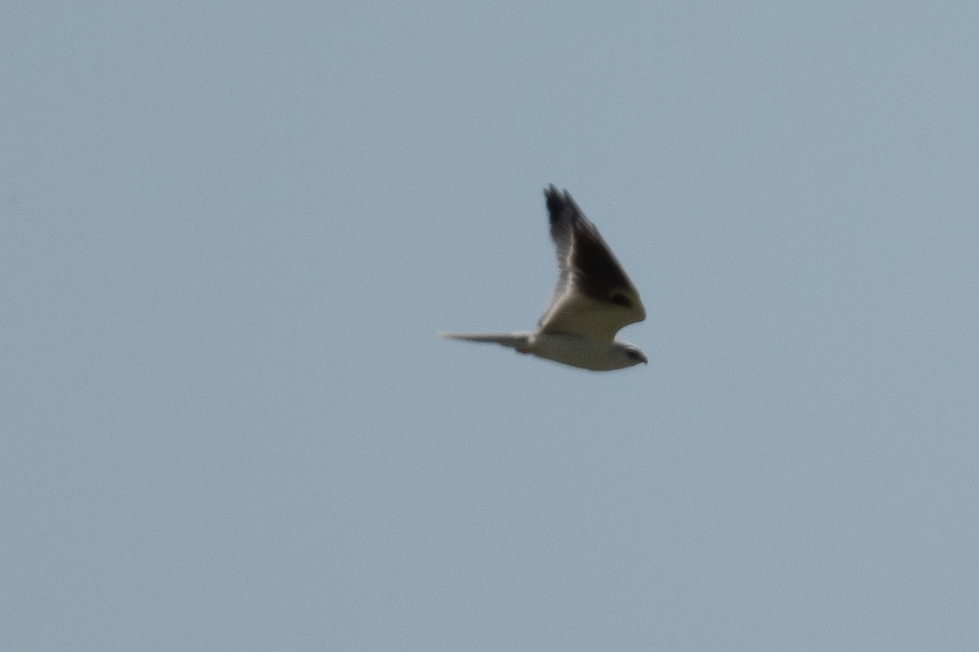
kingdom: Animalia
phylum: Chordata
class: Aves
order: Accipitriformes
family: Accipitridae
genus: Elanus
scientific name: Elanus leucurus
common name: White-tailed kite
